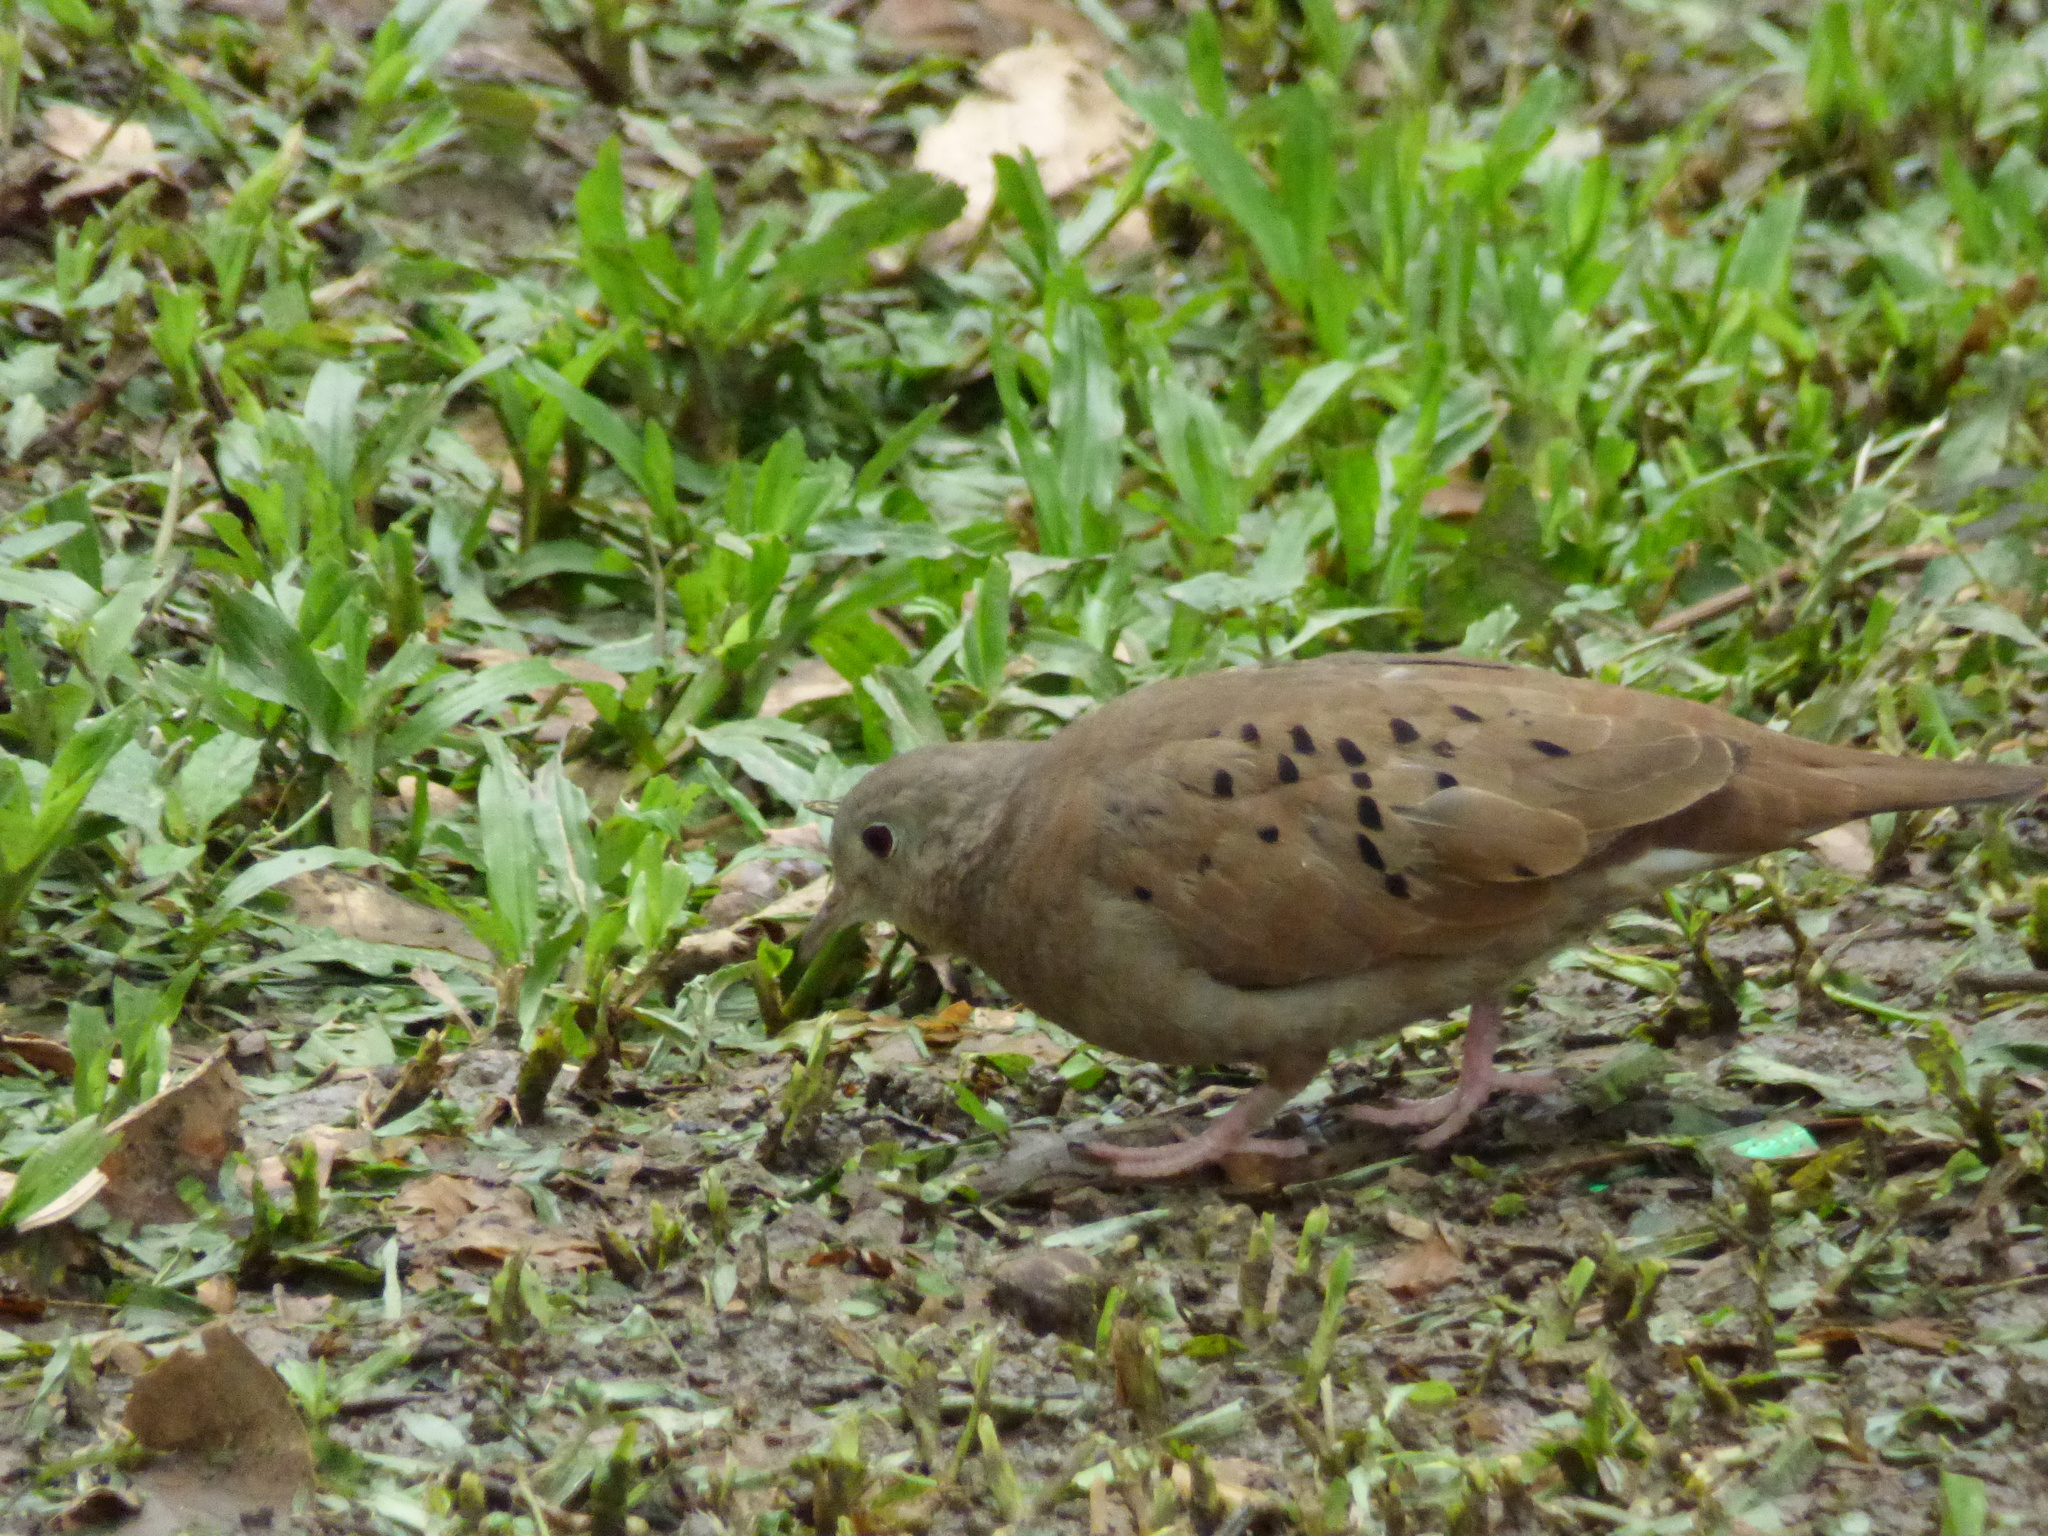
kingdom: Animalia
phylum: Chordata
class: Aves
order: Columbiformes
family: Columbidae
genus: Columbina
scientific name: Columbina talpacoti
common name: Ruddy ground dove
